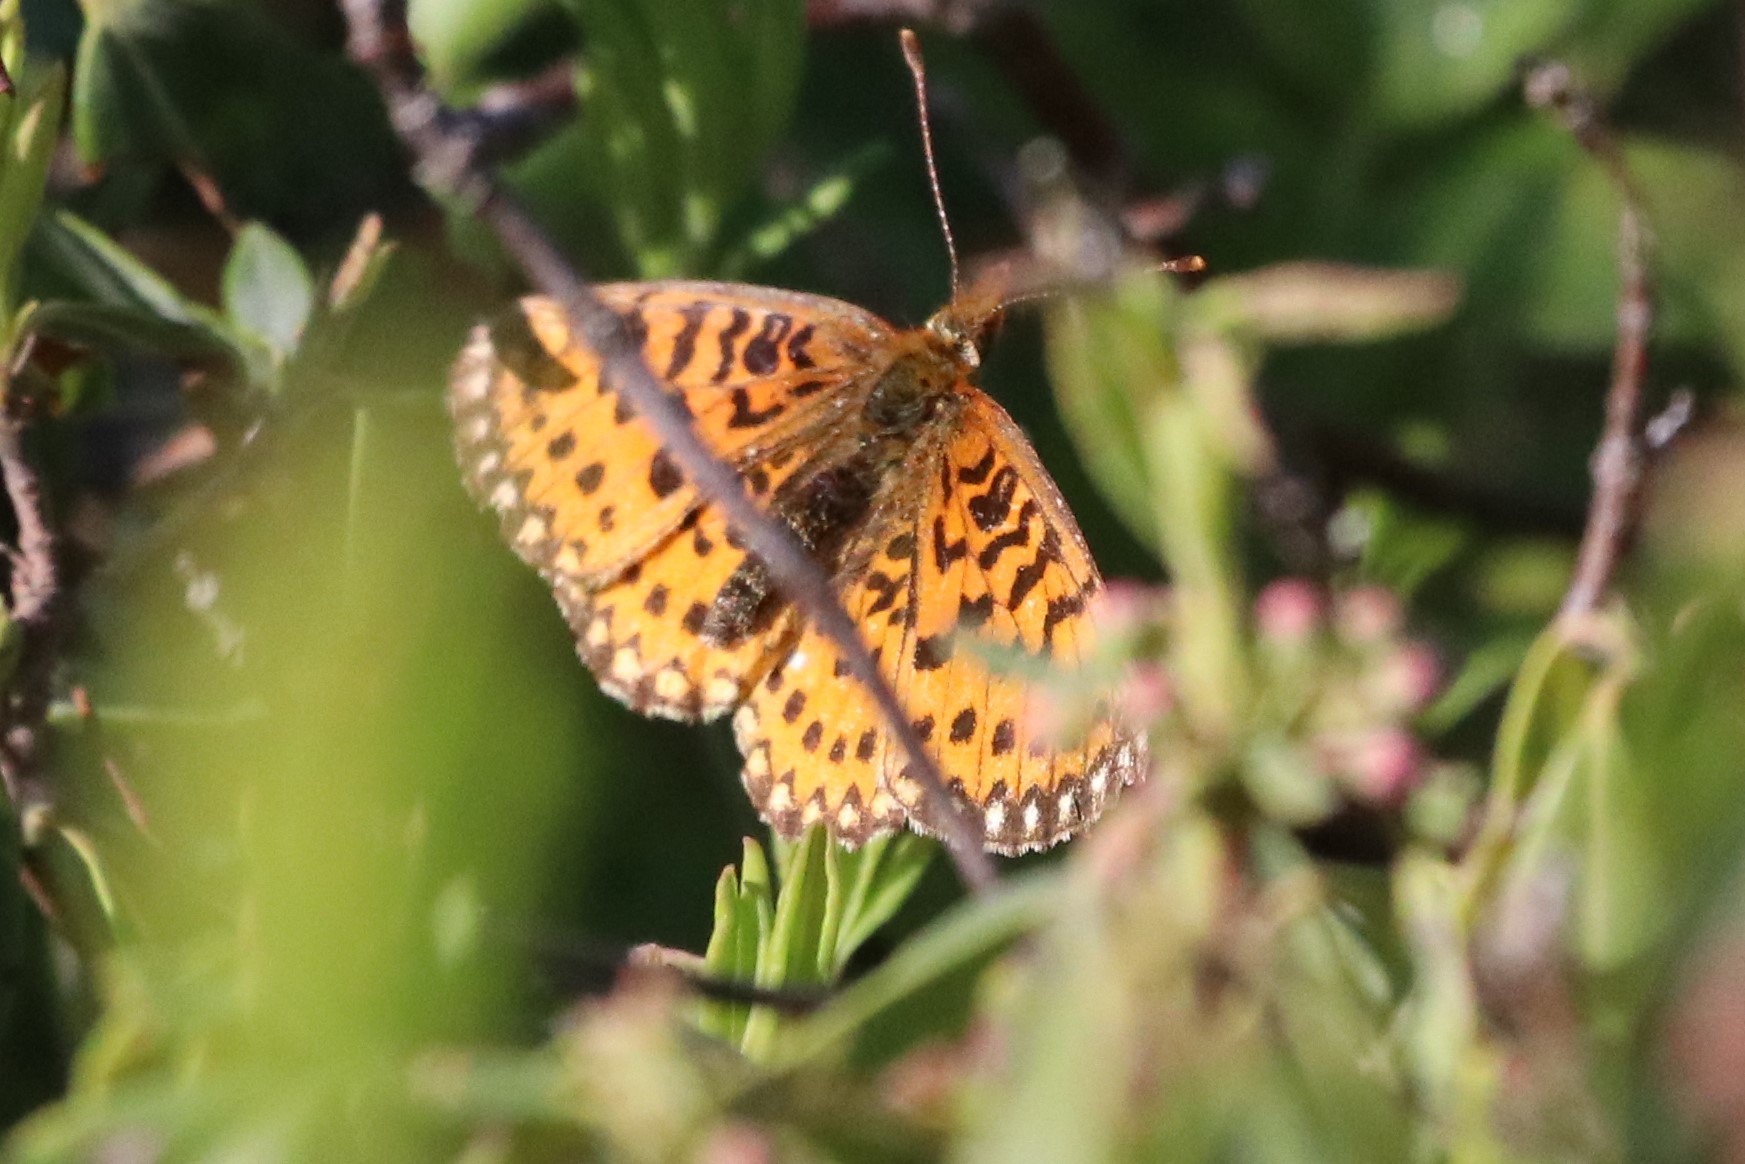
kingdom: Animalia
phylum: Arthropoda
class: Insecta
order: Lepidoptera
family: Nymphalidae
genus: Boloria
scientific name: Boloria
